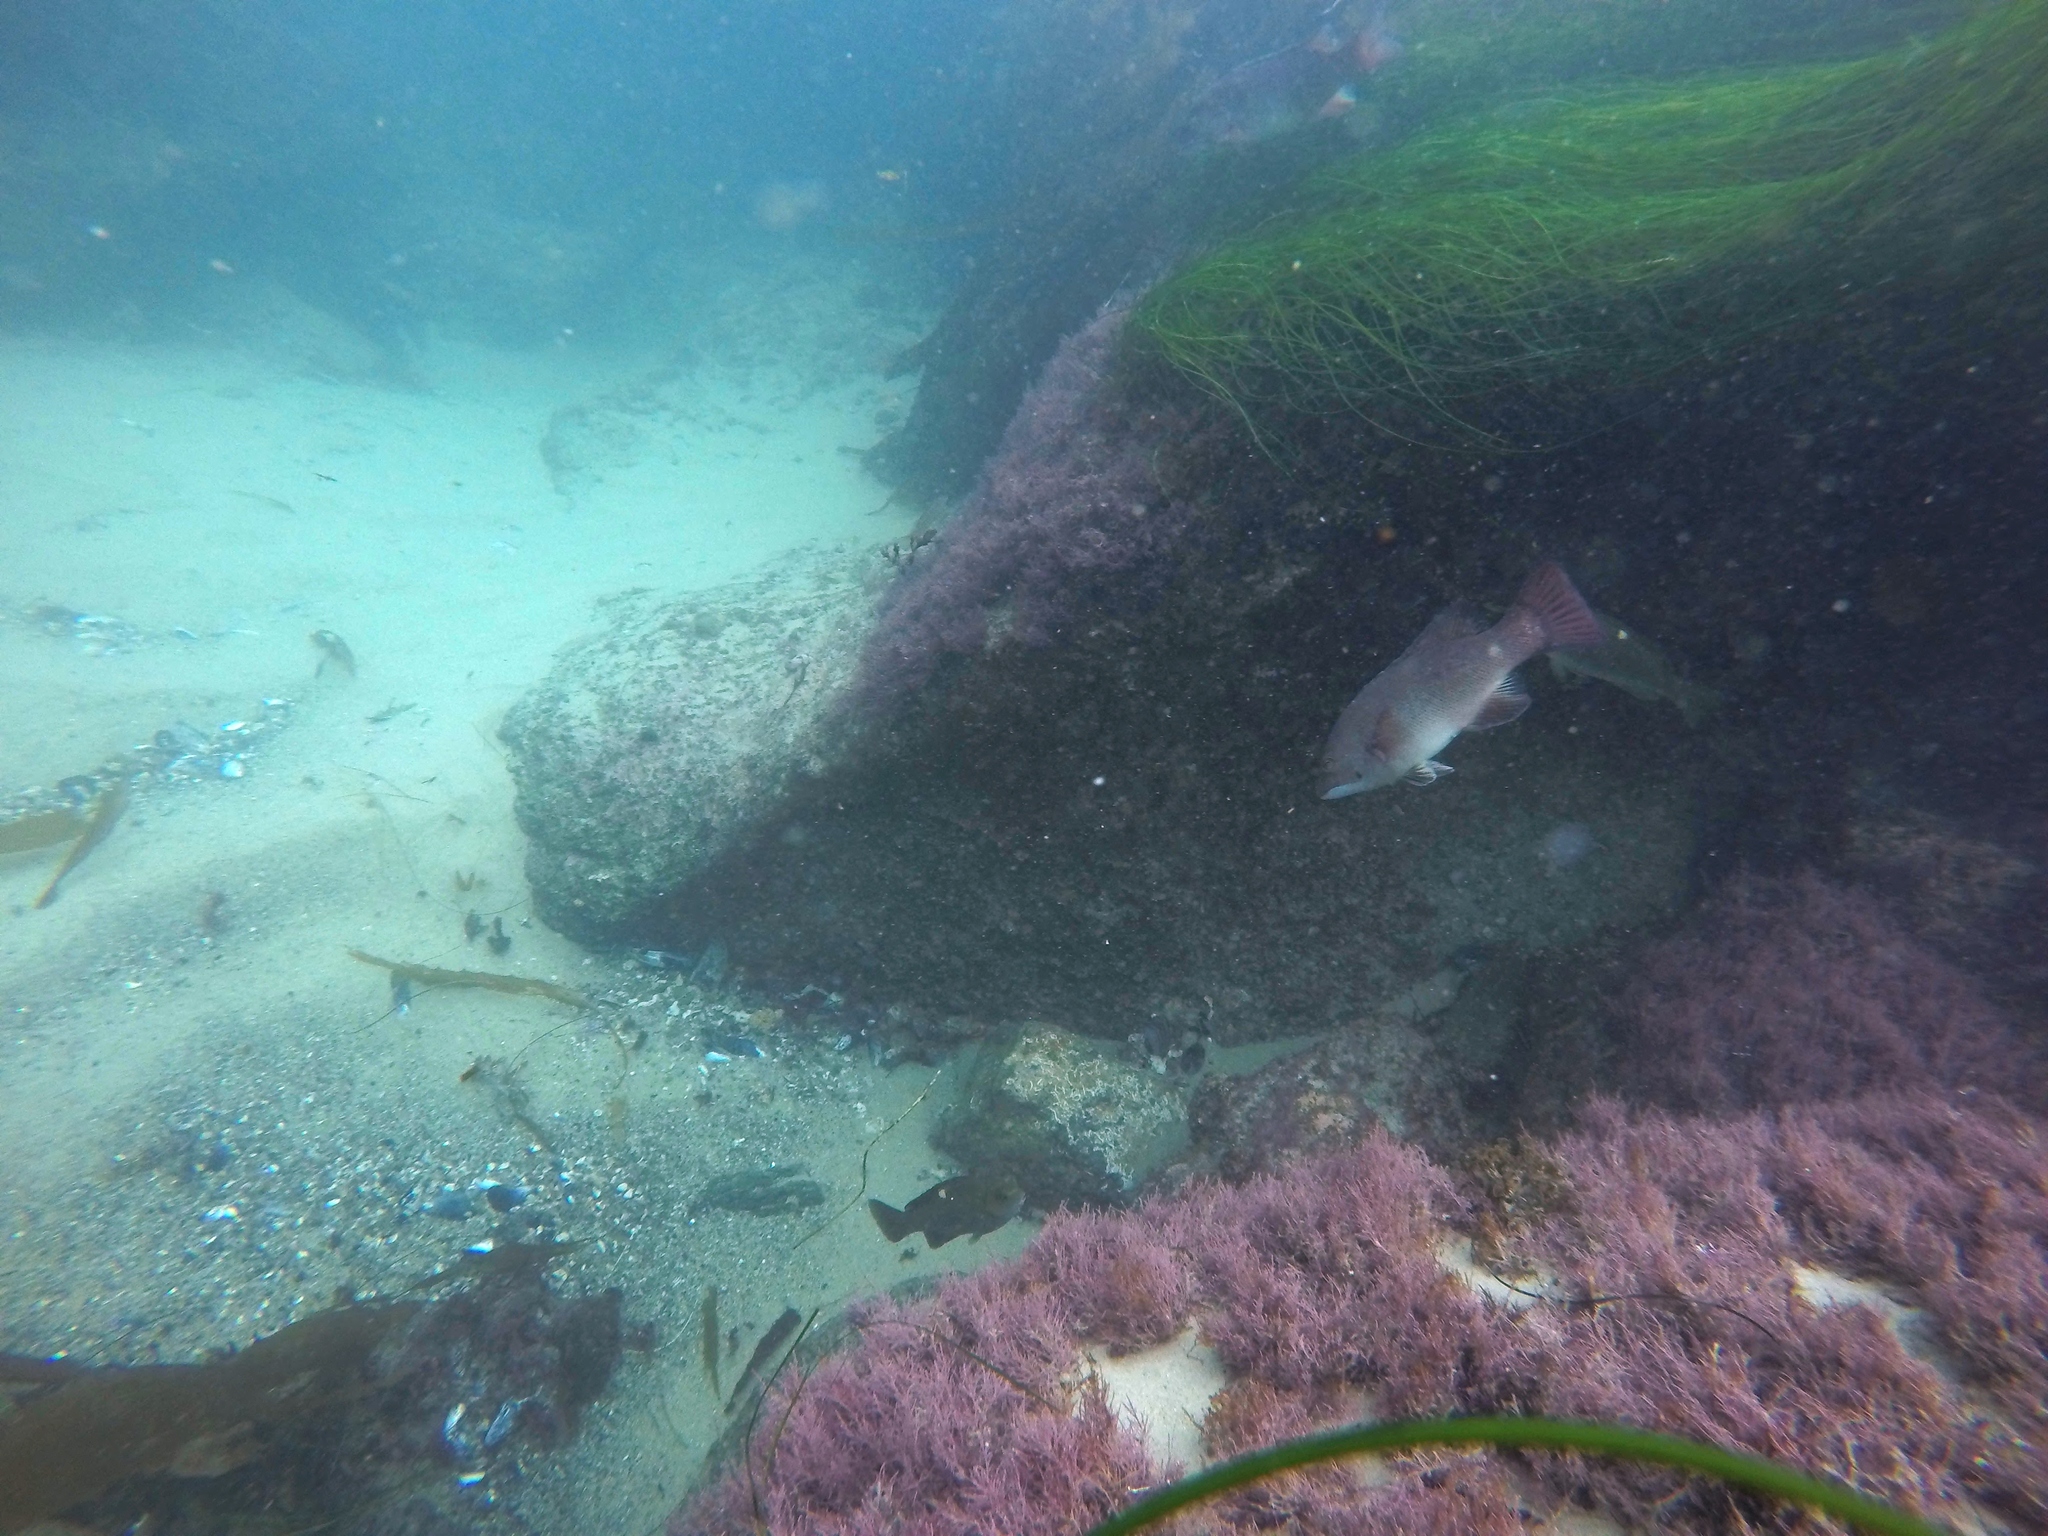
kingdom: Animalia
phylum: Chordata
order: Perciformes
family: Labridae
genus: Semicossyphus
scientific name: Semicossyphus pulcher
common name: California sheephead
